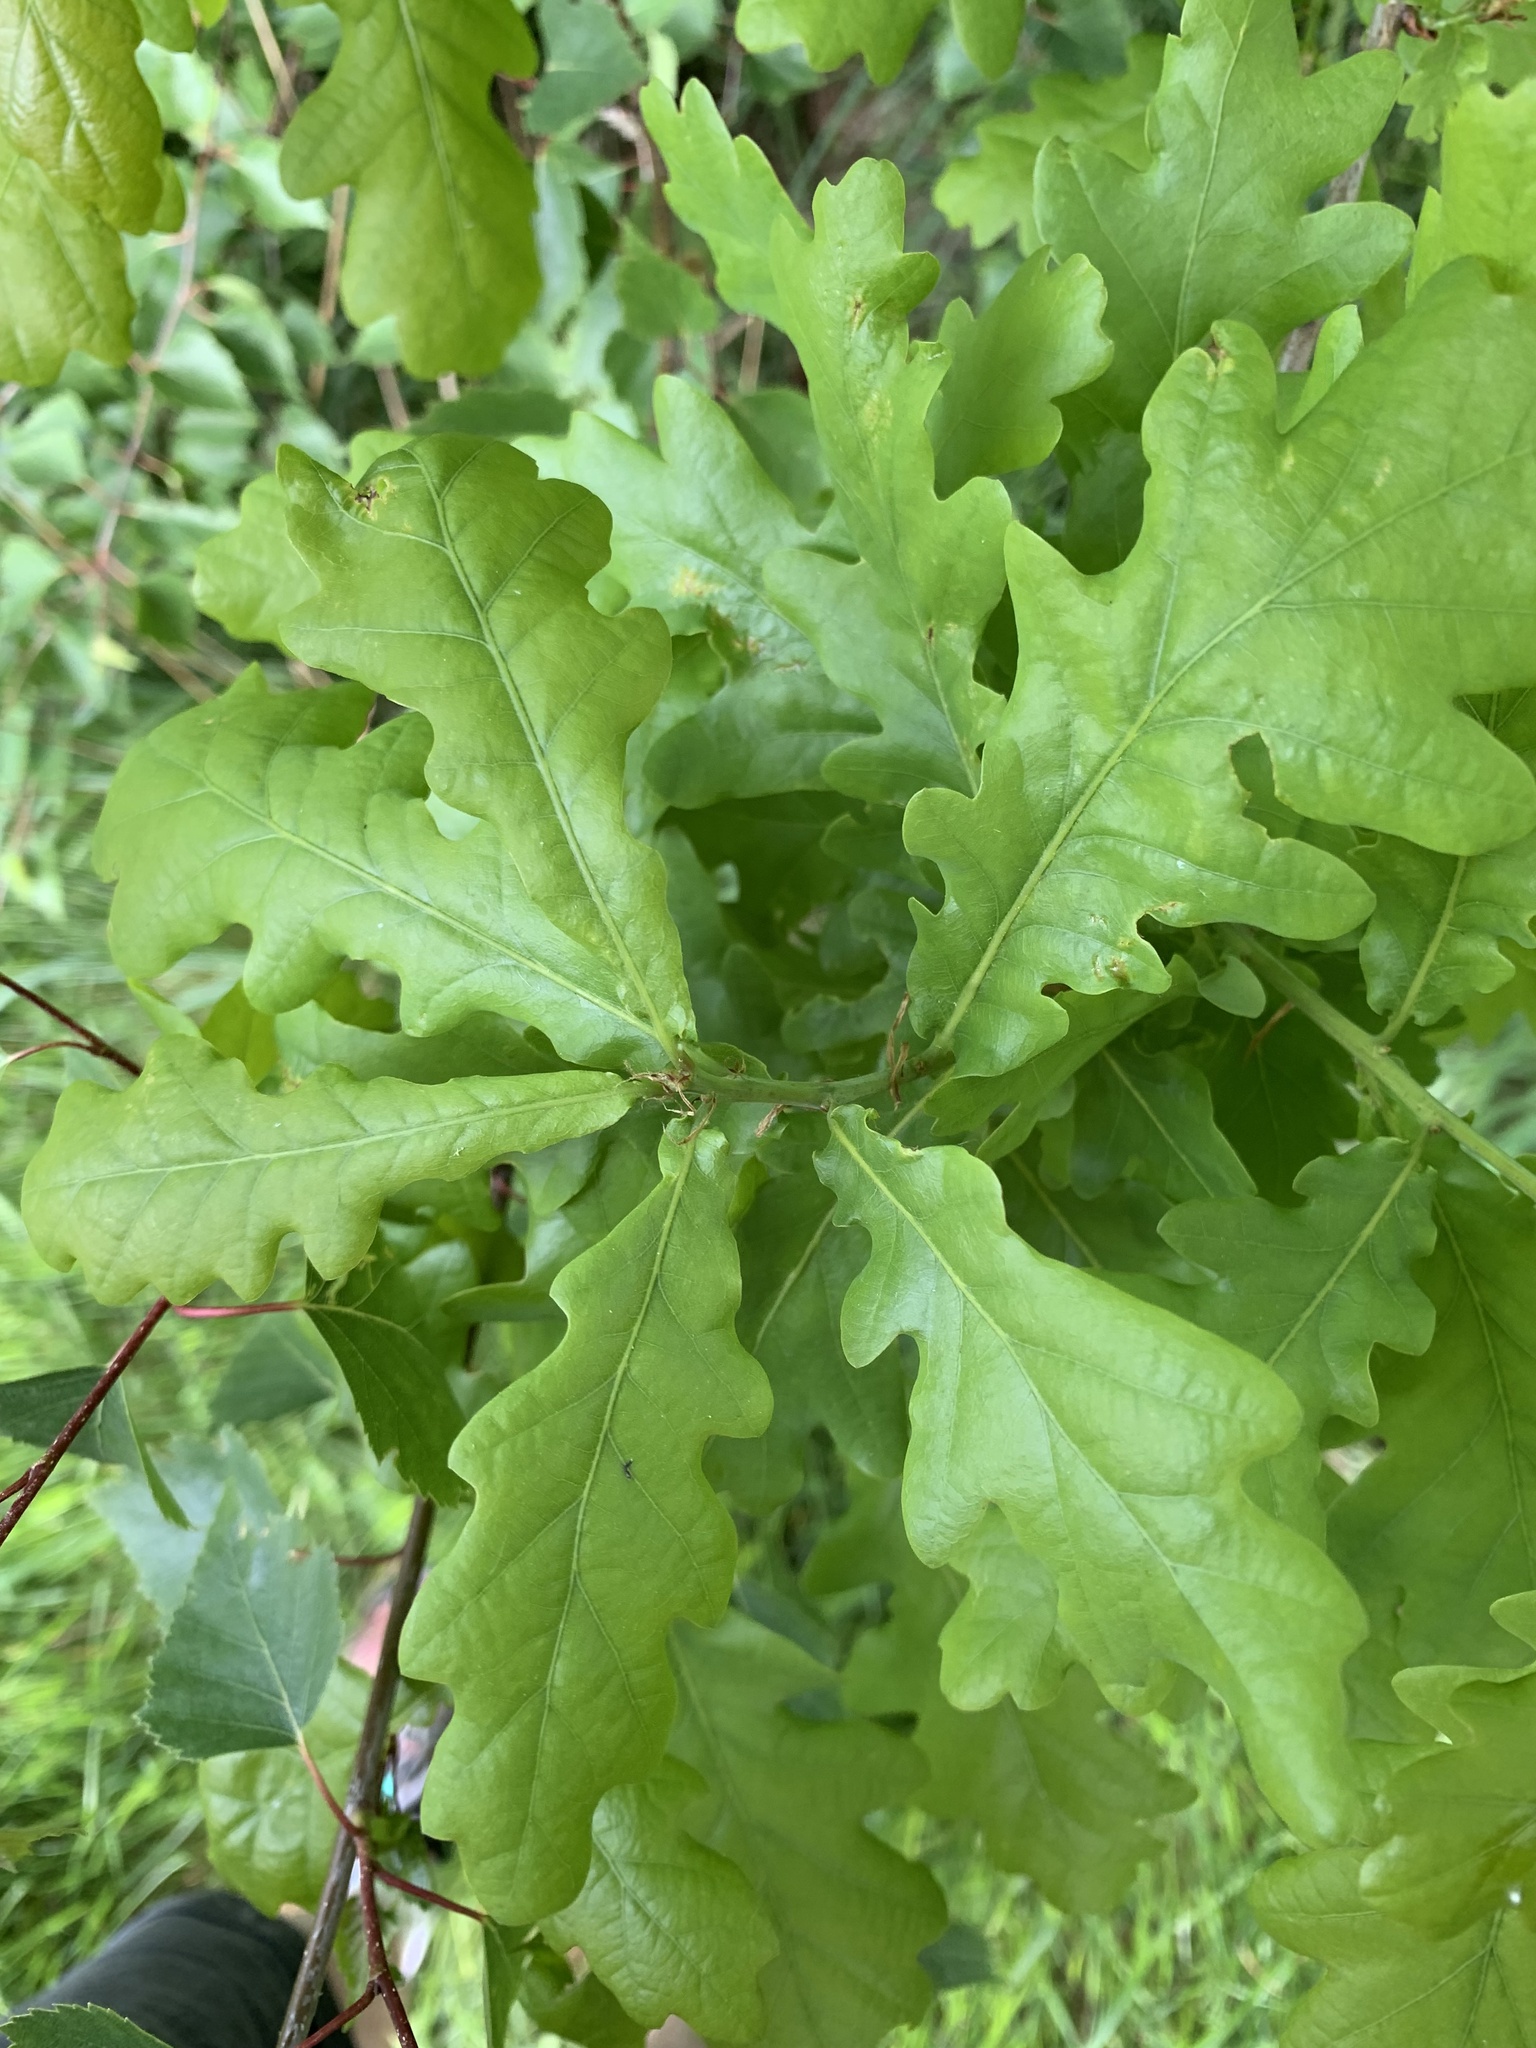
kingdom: Plantae
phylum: Tracheophyta
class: Magnoliopsida
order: Fagales
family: Fagaceae
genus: Quercus
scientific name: Quercus robur
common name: Pedunculate oak
